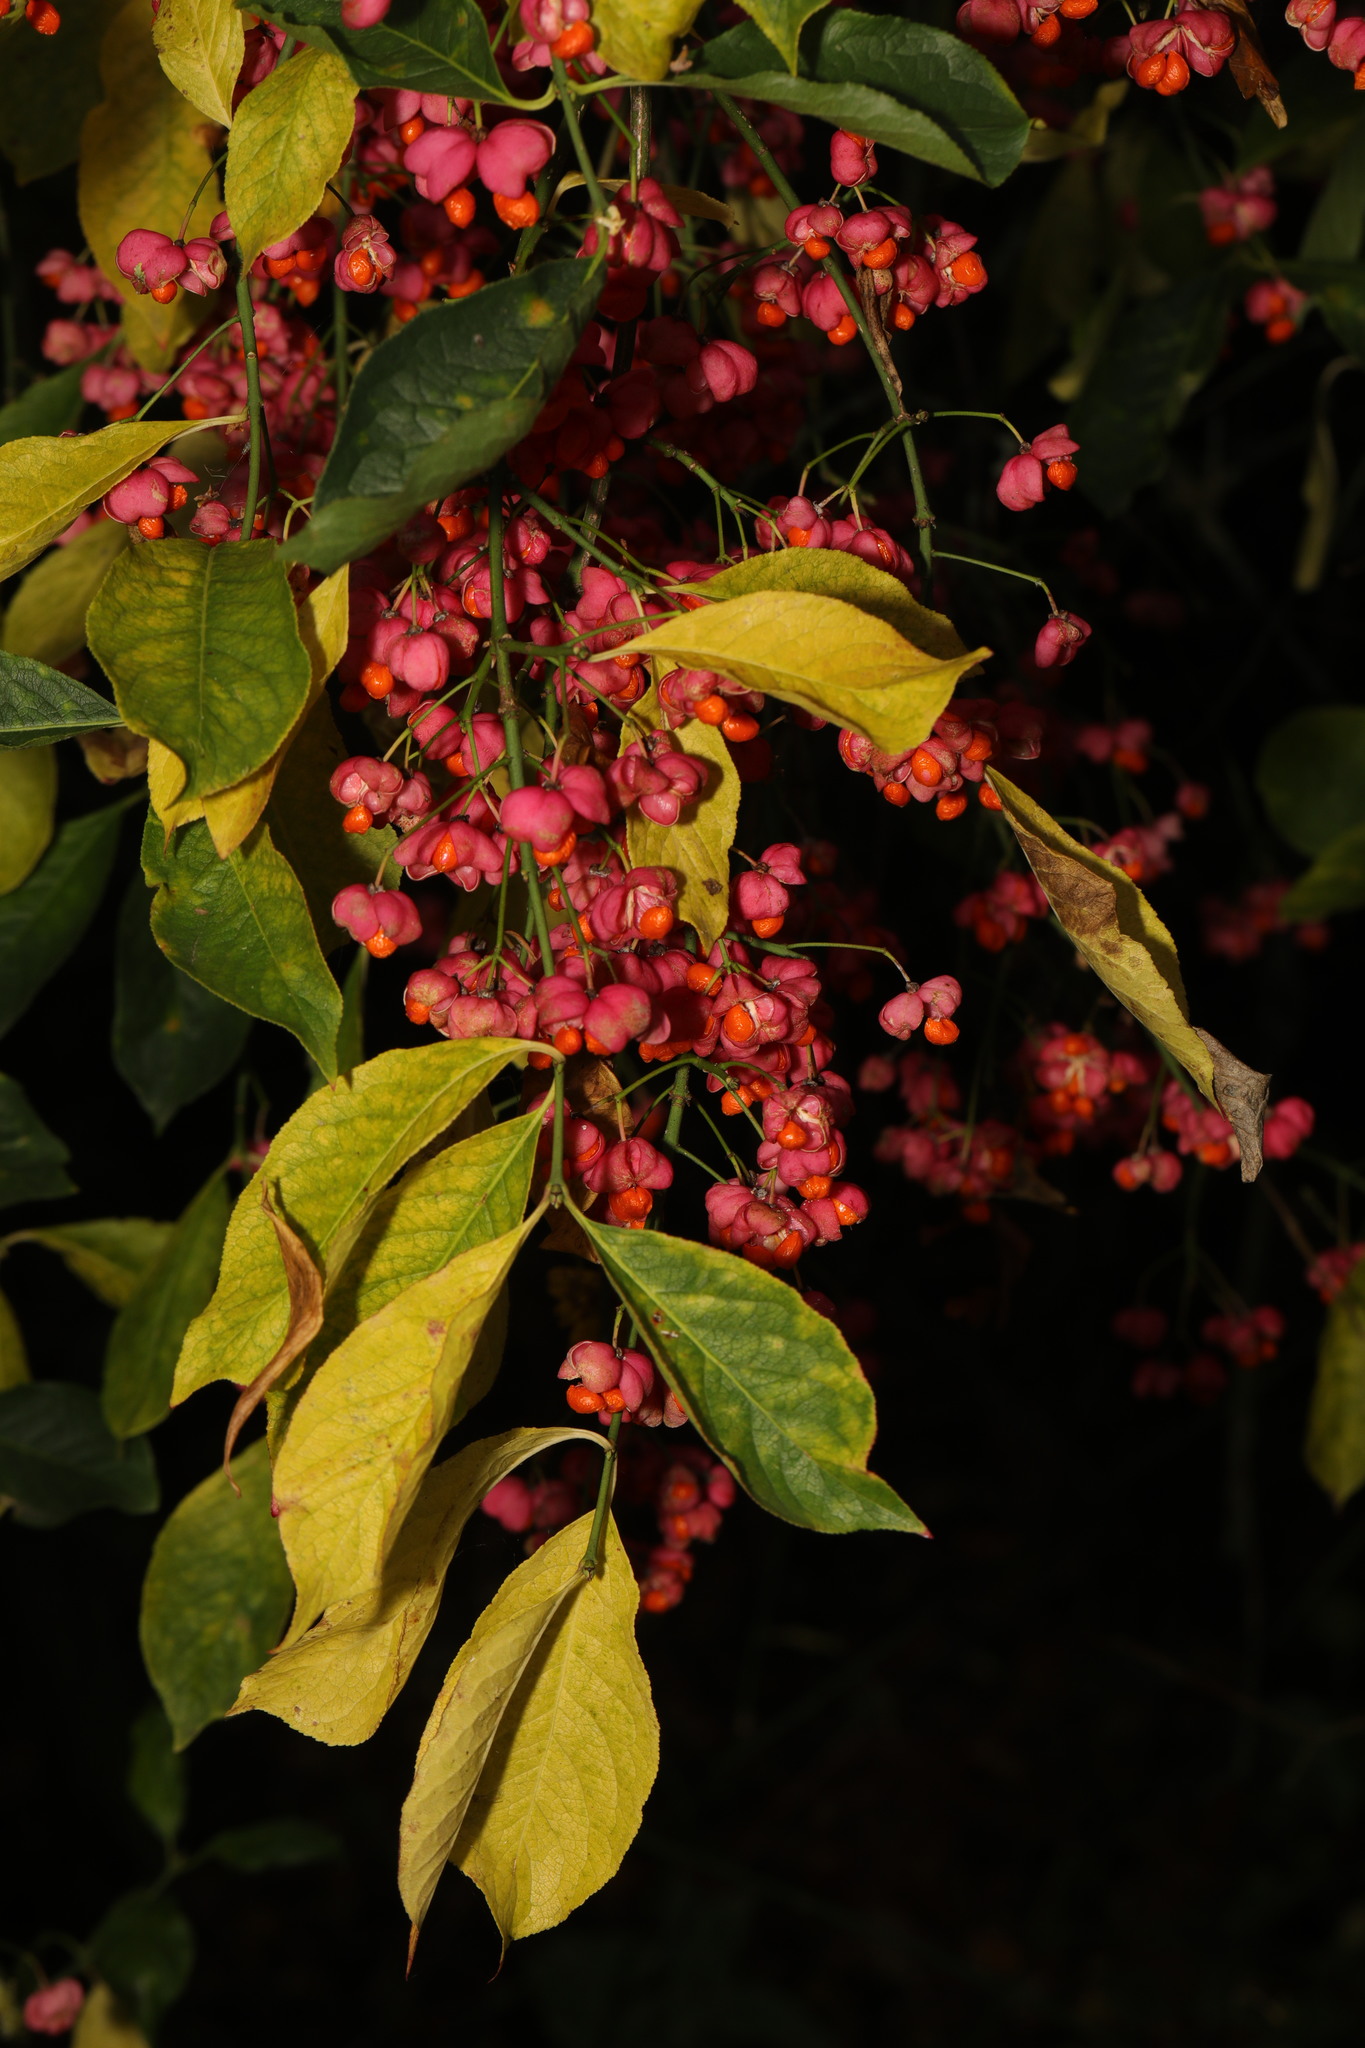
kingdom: Plantae
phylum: Tracheophyta
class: Magnoliopsida
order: Celastrales
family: Celastraceae
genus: Euonymus
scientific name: Euonymus europaeus
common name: Spindle
